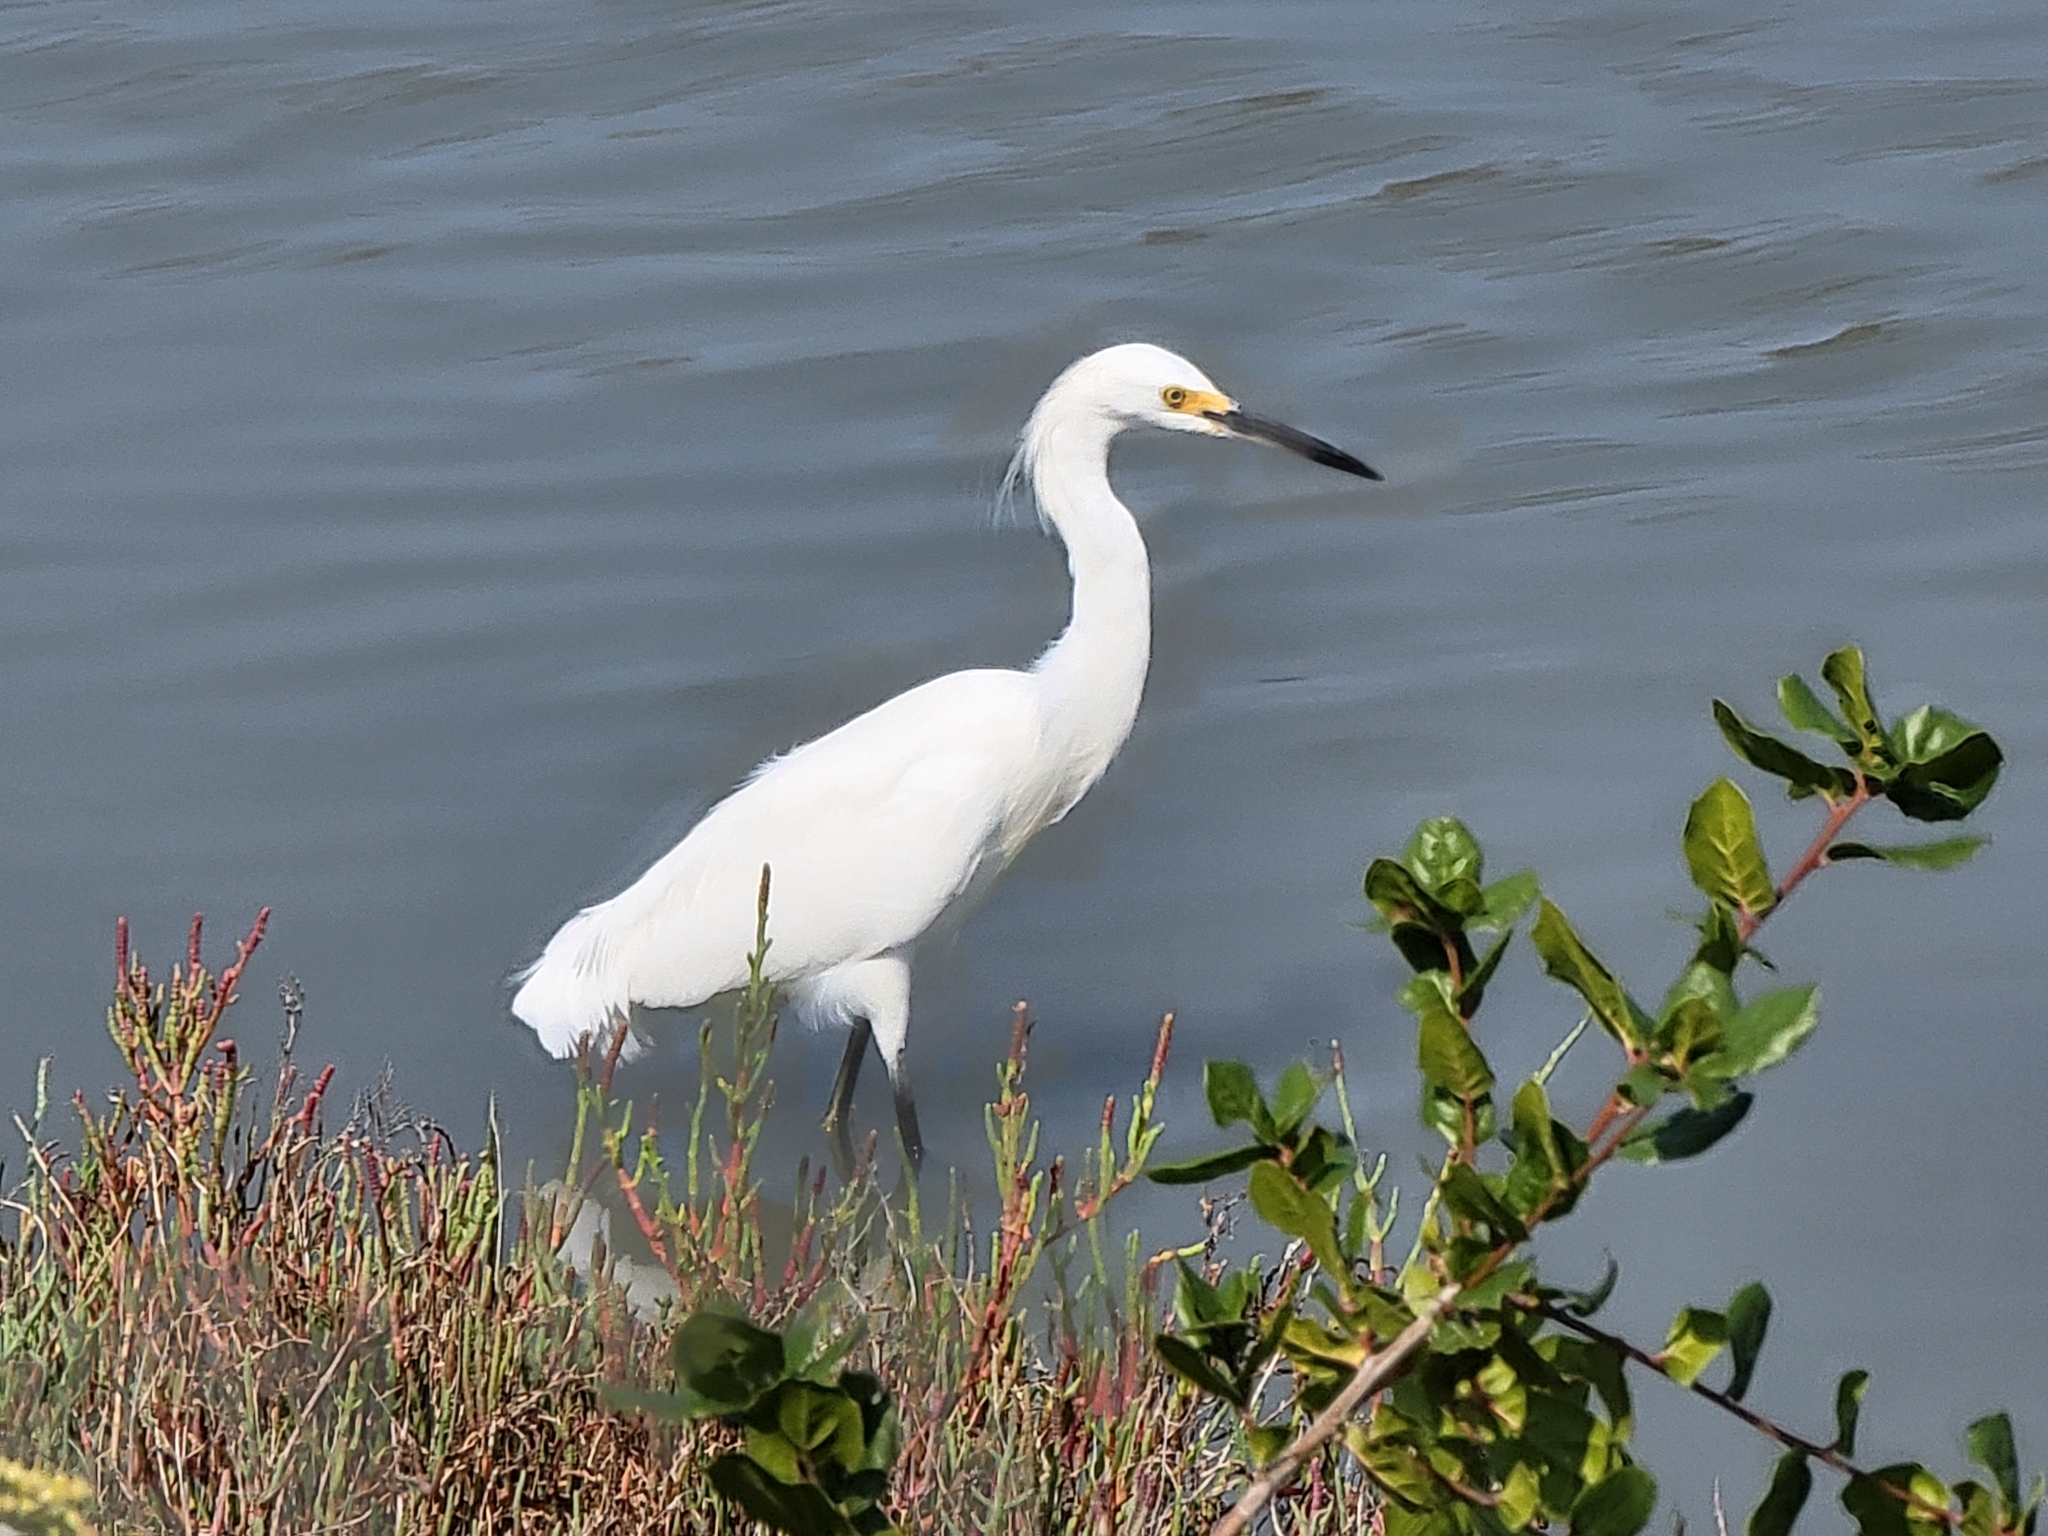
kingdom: Animalia
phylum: Chordata
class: Aves
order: Pelecaniformes
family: Ardeidae
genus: Egretta
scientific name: Egretta thula
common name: Snowy egret
